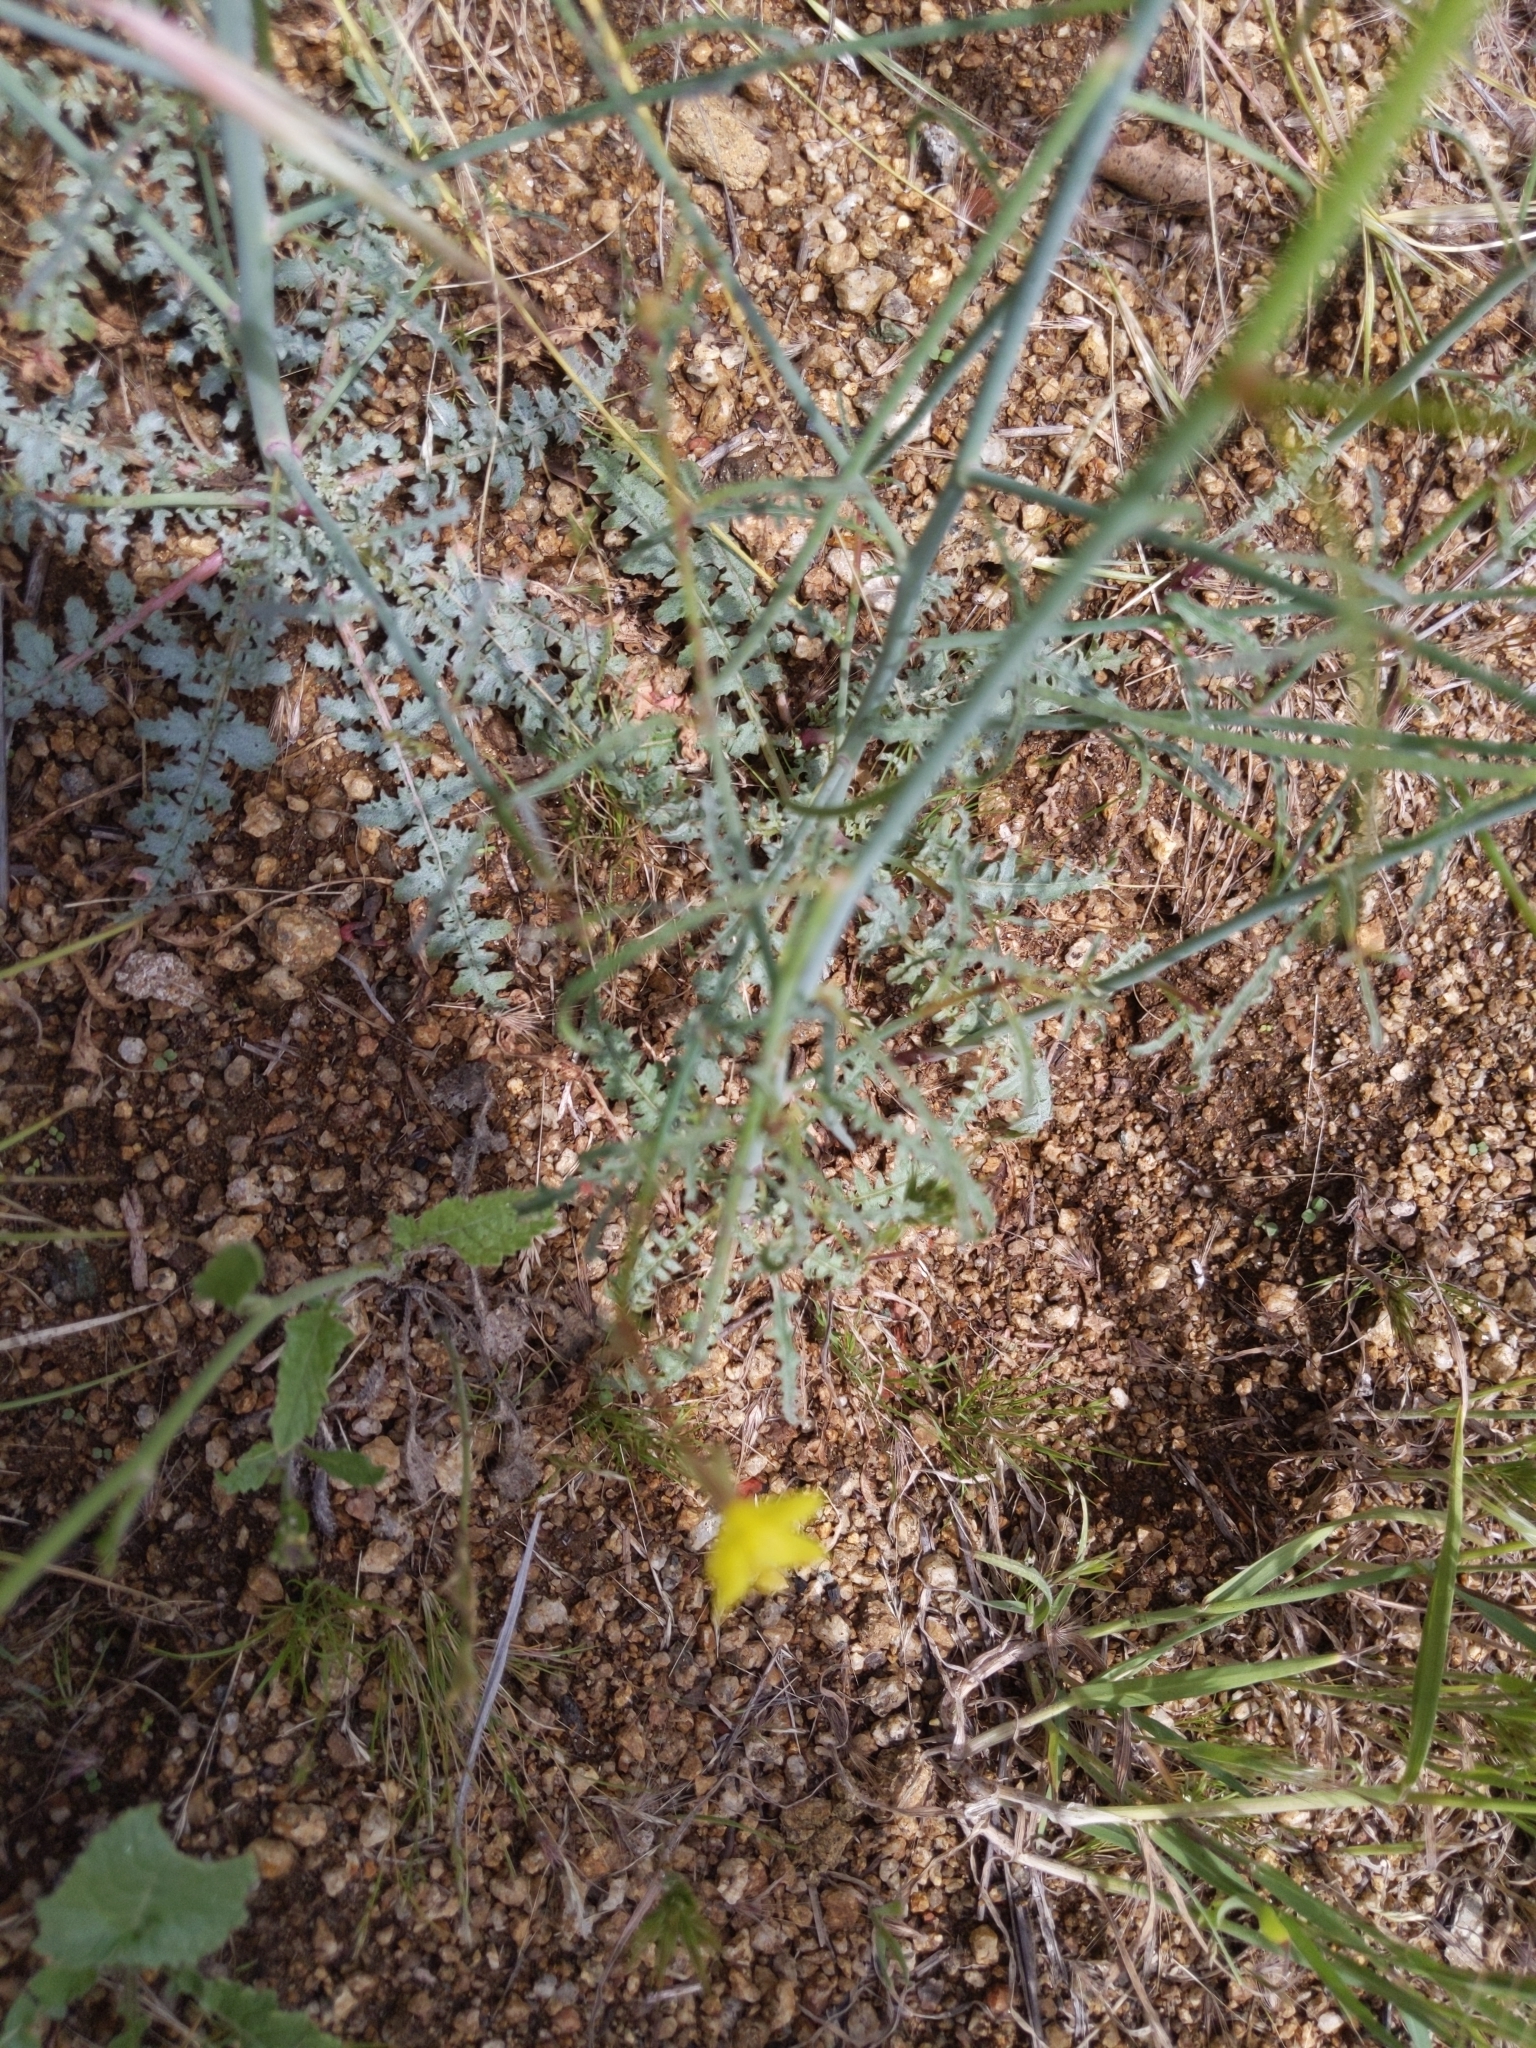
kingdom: Plantae
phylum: Tracheophyta
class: Magnoliopsida
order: Myrtales
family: Onagraceae
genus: Eulobus
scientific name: Eulobus californicus
